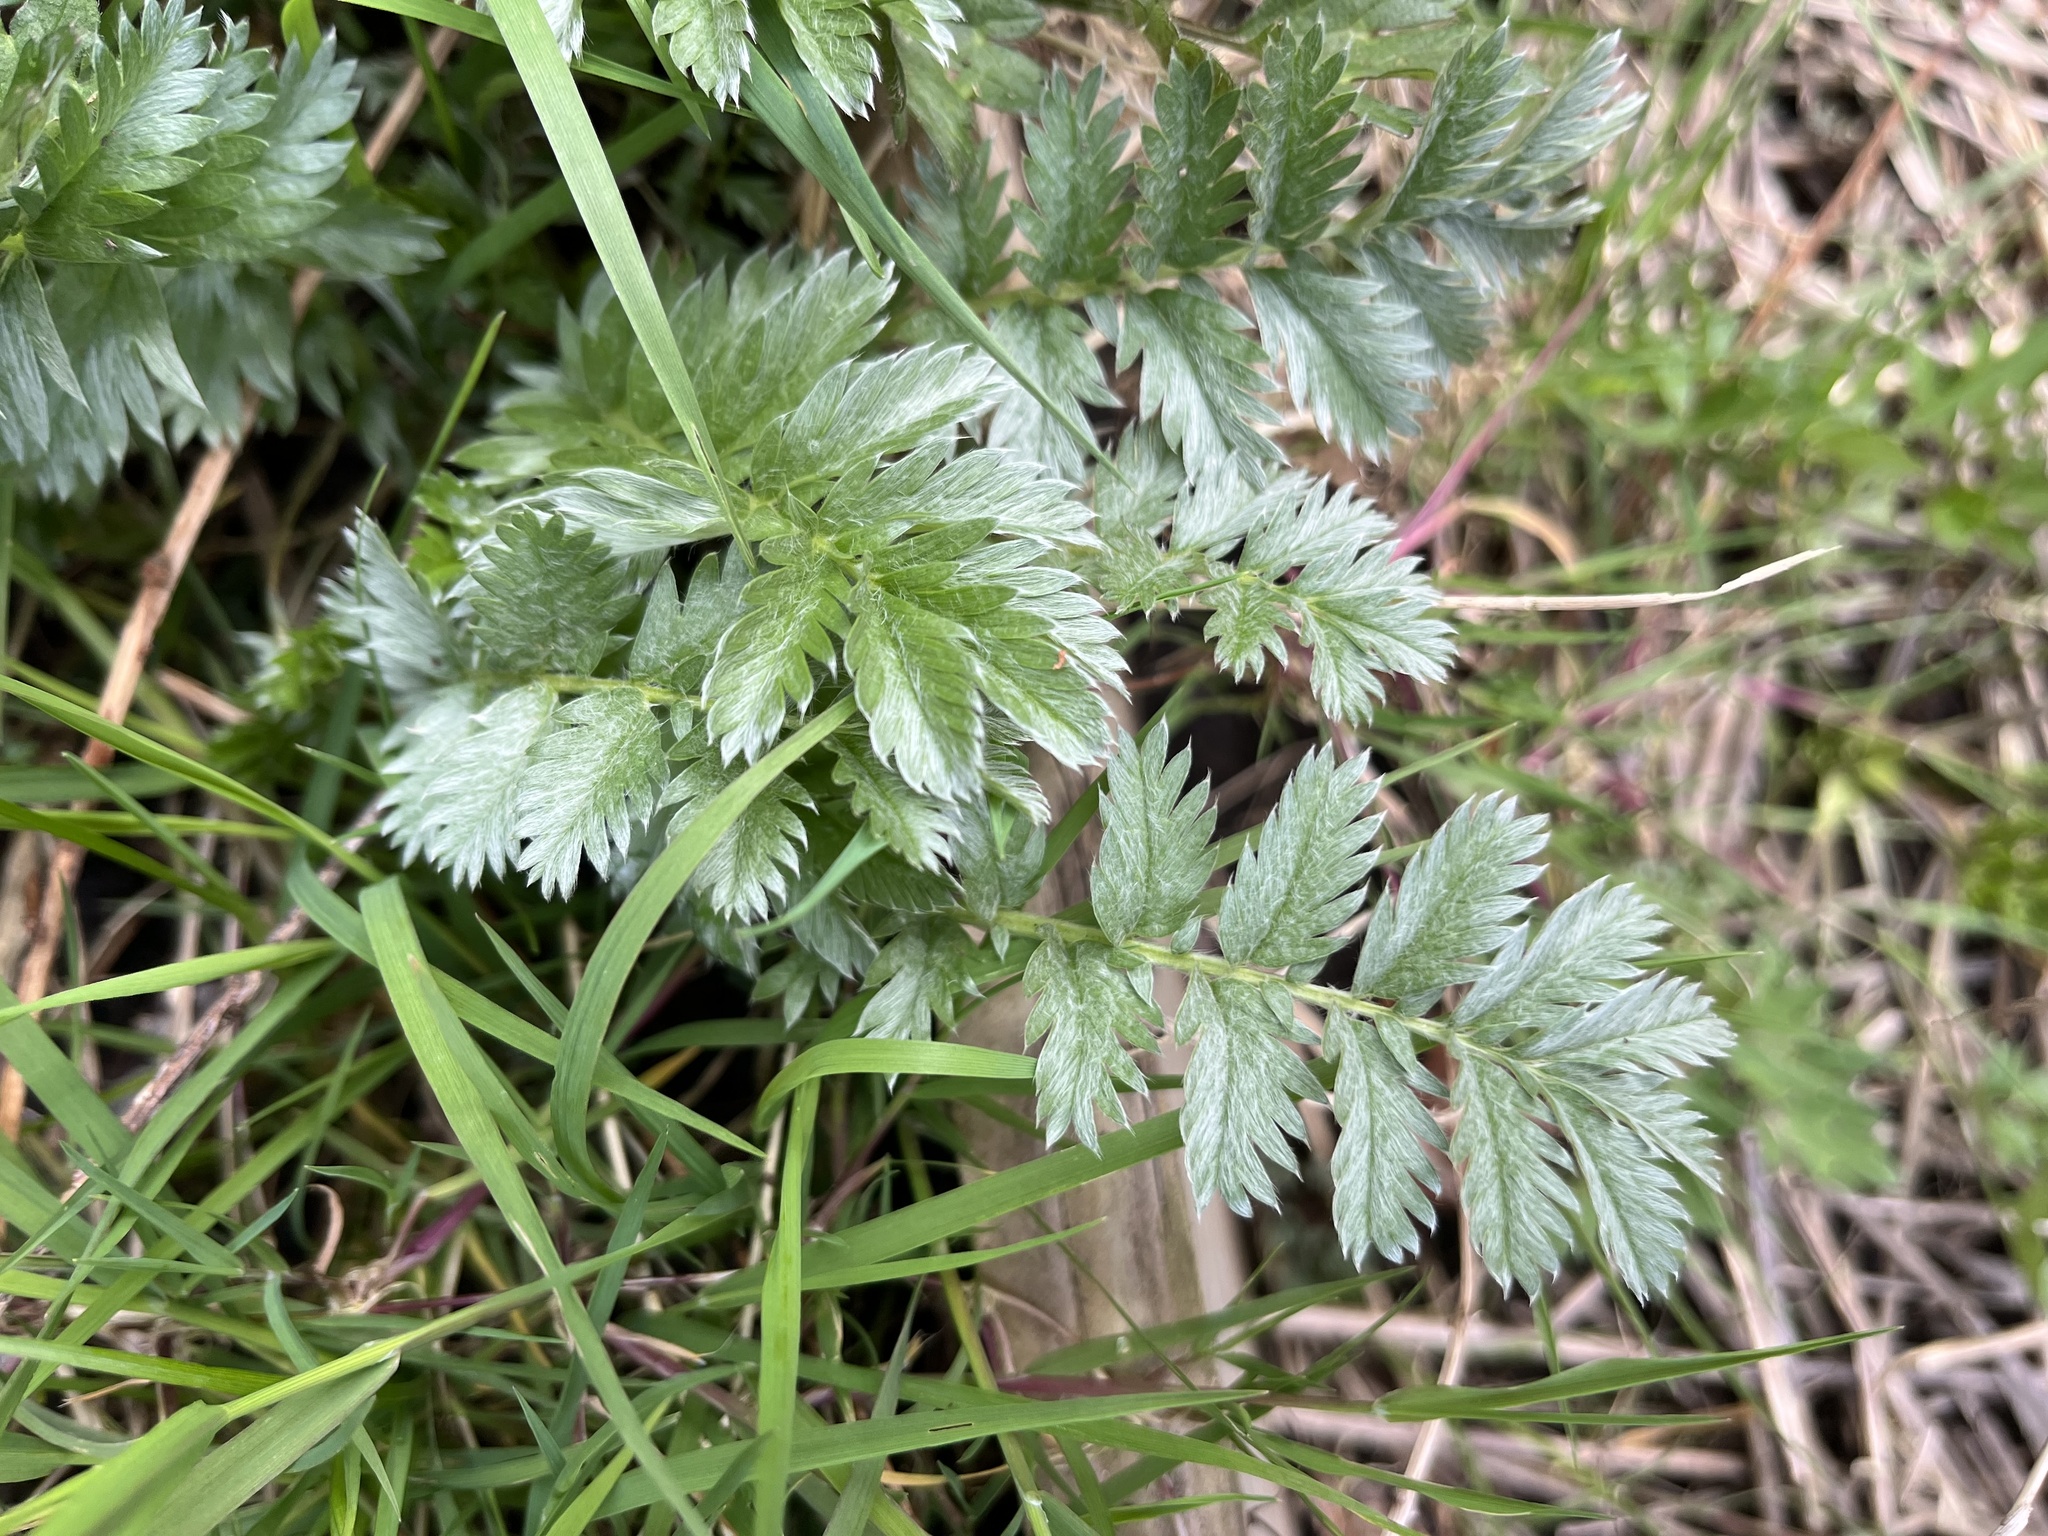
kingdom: Plantae
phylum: Tracheophyta
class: Magnoliopsida
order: Rosales
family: Rosaceae
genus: Argentina
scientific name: Argentina anserina
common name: Common silverweed
